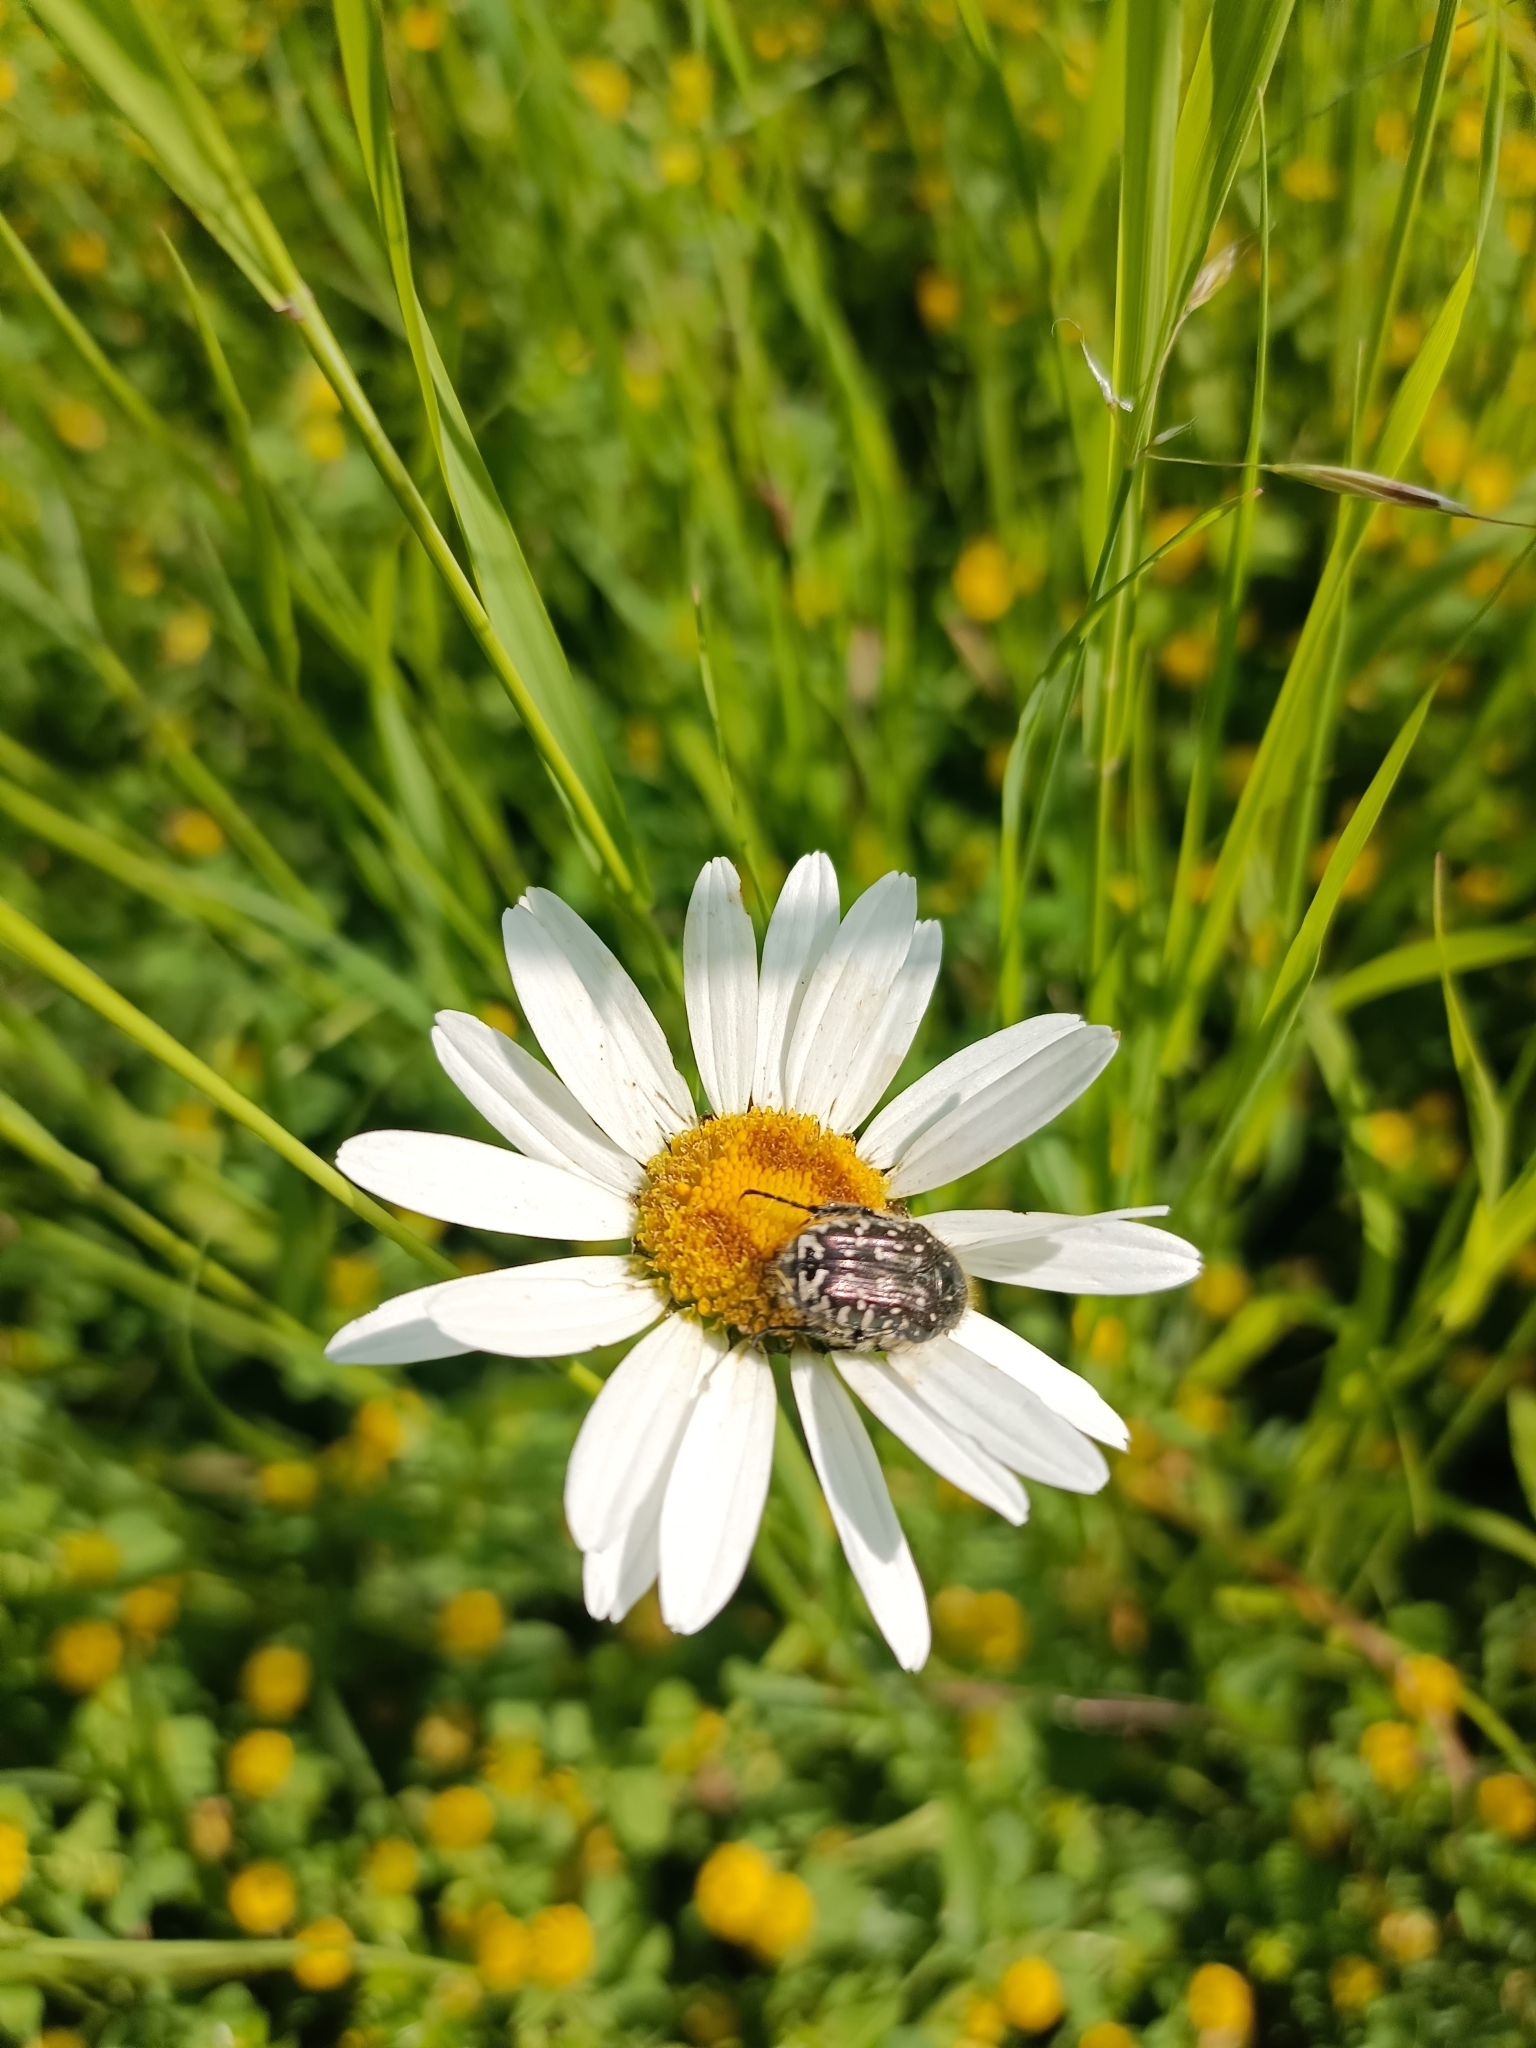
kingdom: Animalia
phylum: Arthropoda
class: Insecta
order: Coleoptera
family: Scarabaeidae
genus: Oxythyrea
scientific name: Oxythyrea funesta
